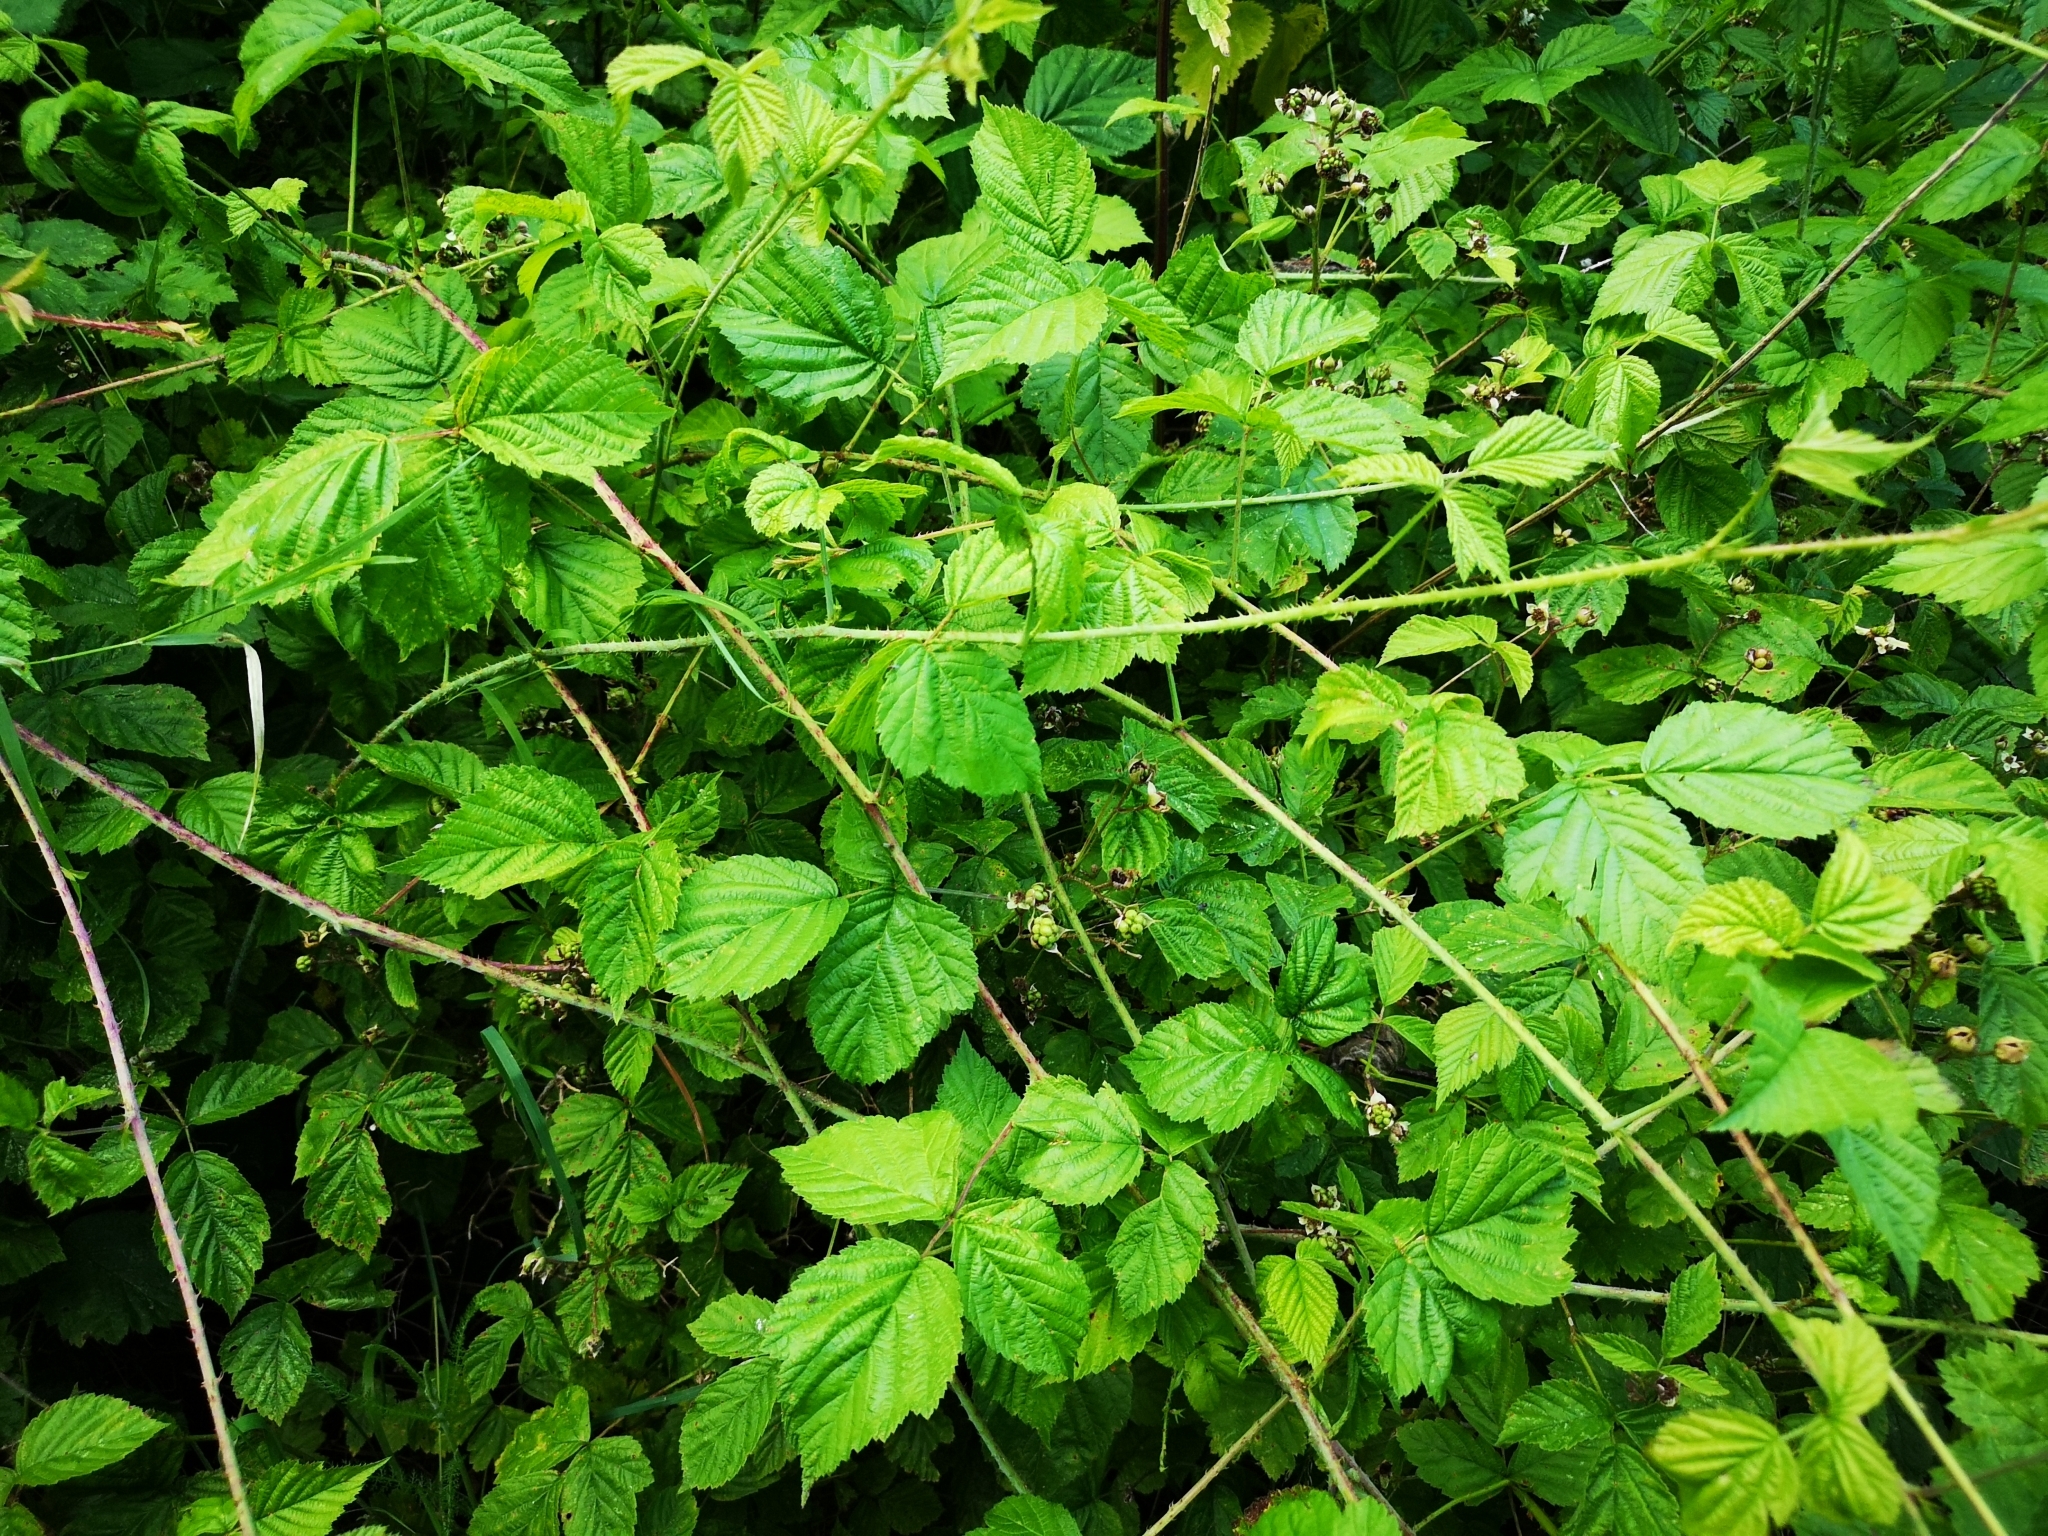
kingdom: Plantae
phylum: Tracheophyta
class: Magnoliopsida
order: Rosales
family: Rosaceae
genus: Rubus
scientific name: Rubus caesius
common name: Dewberry
